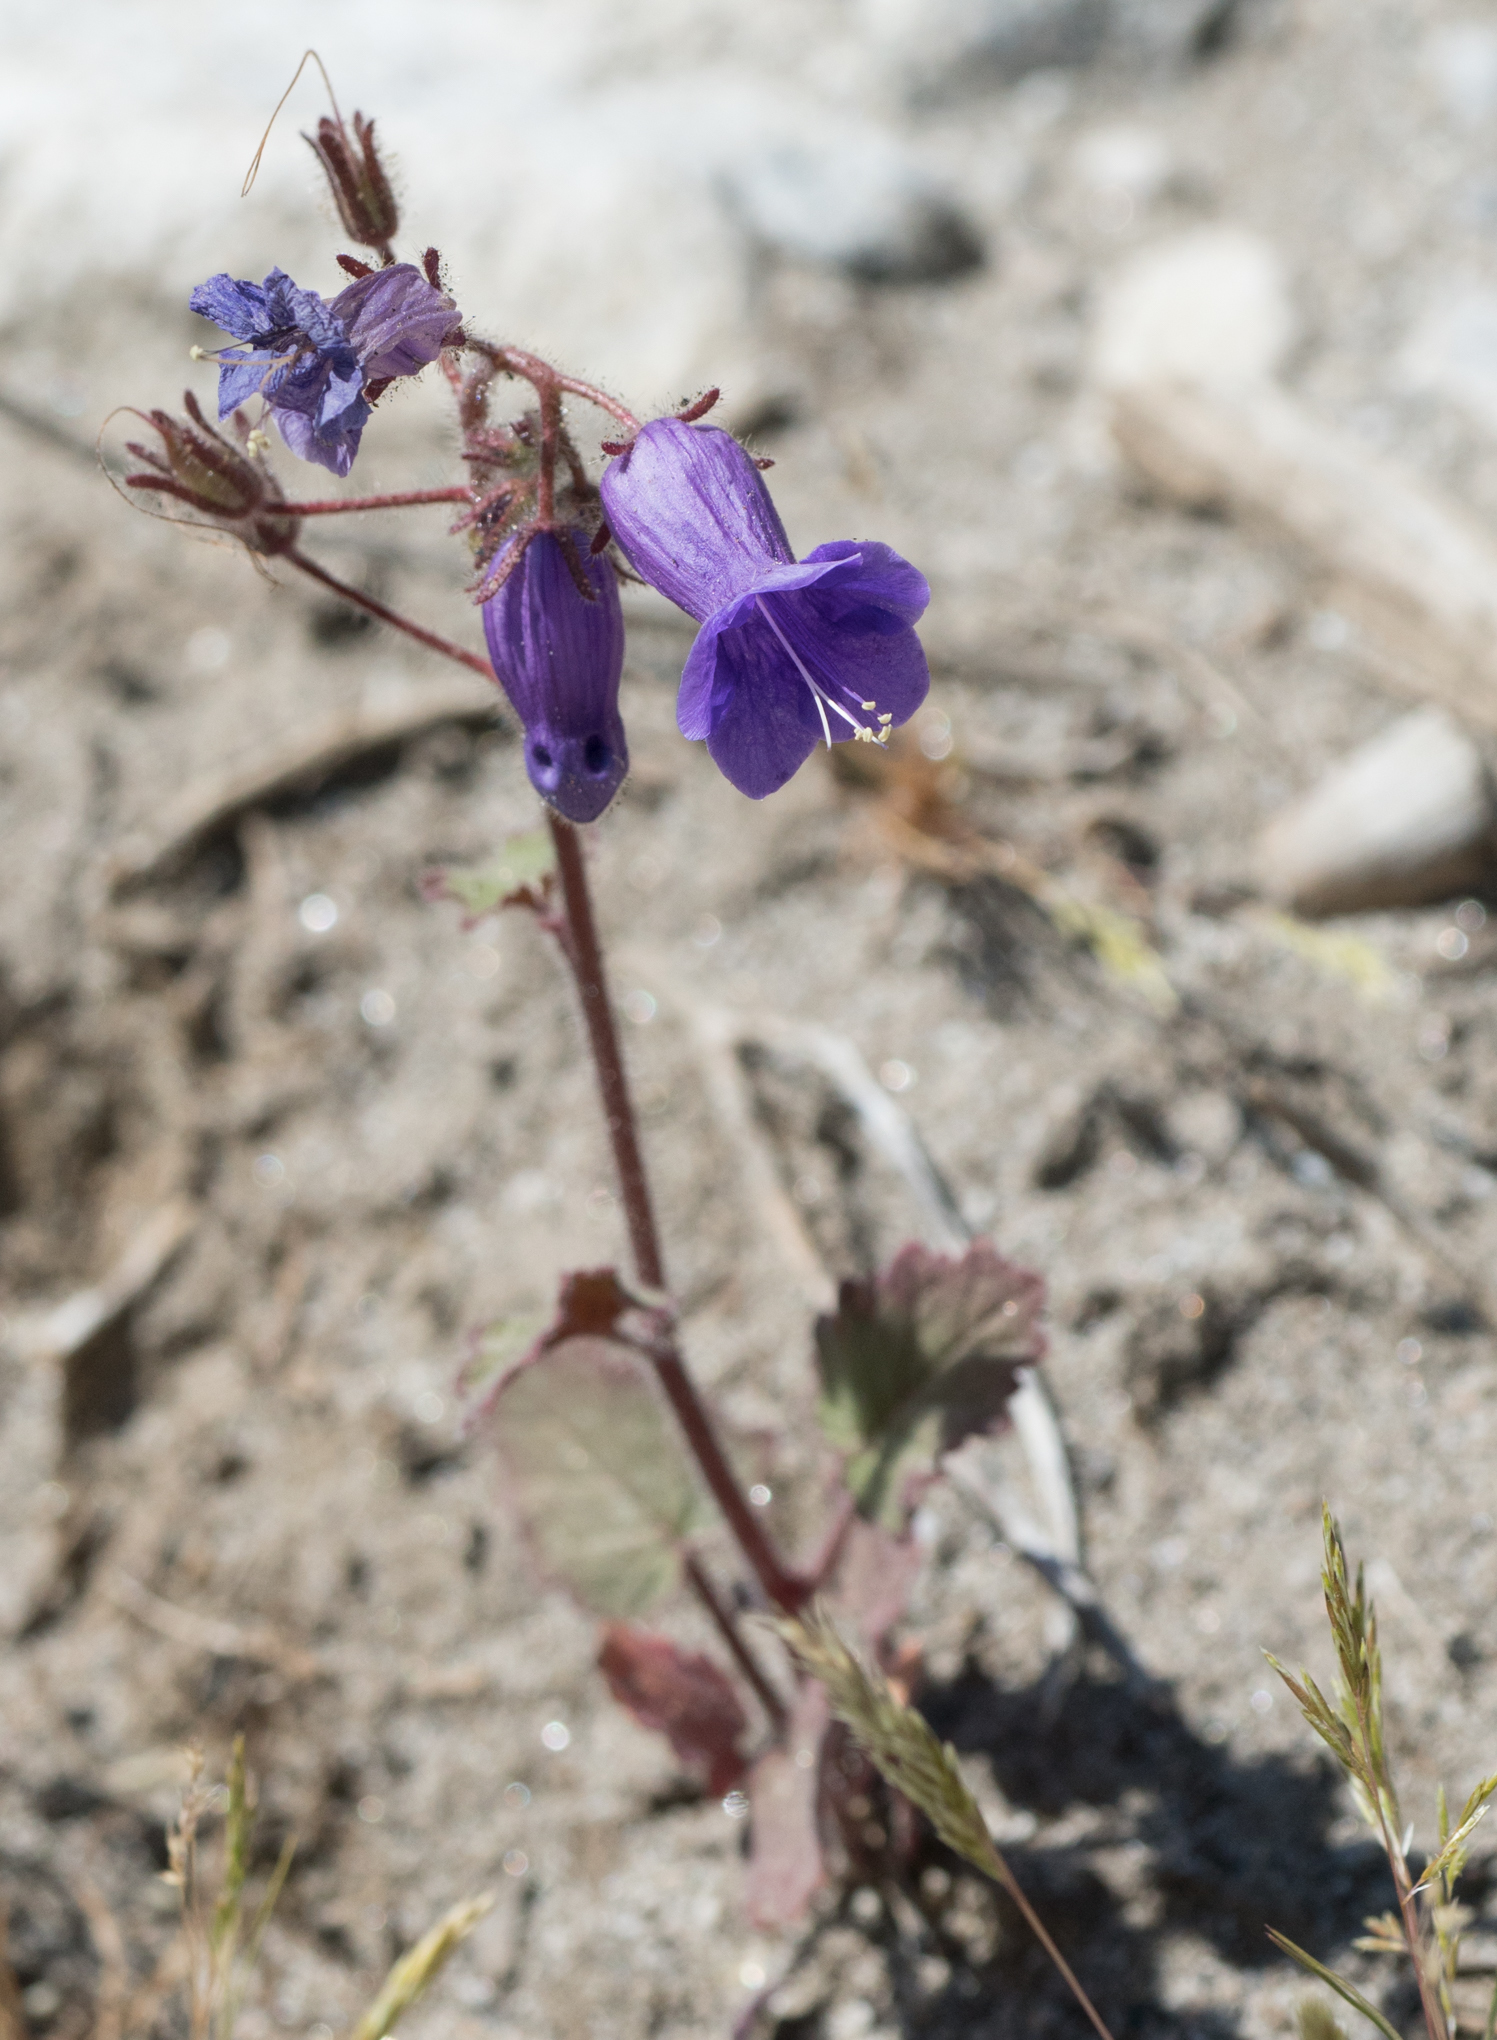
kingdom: Plantae
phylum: Tracheophyta
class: Magnoliopsida
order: Boraginales
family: Hydrophyllaceae
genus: Phacelia
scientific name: Phacelia minor
